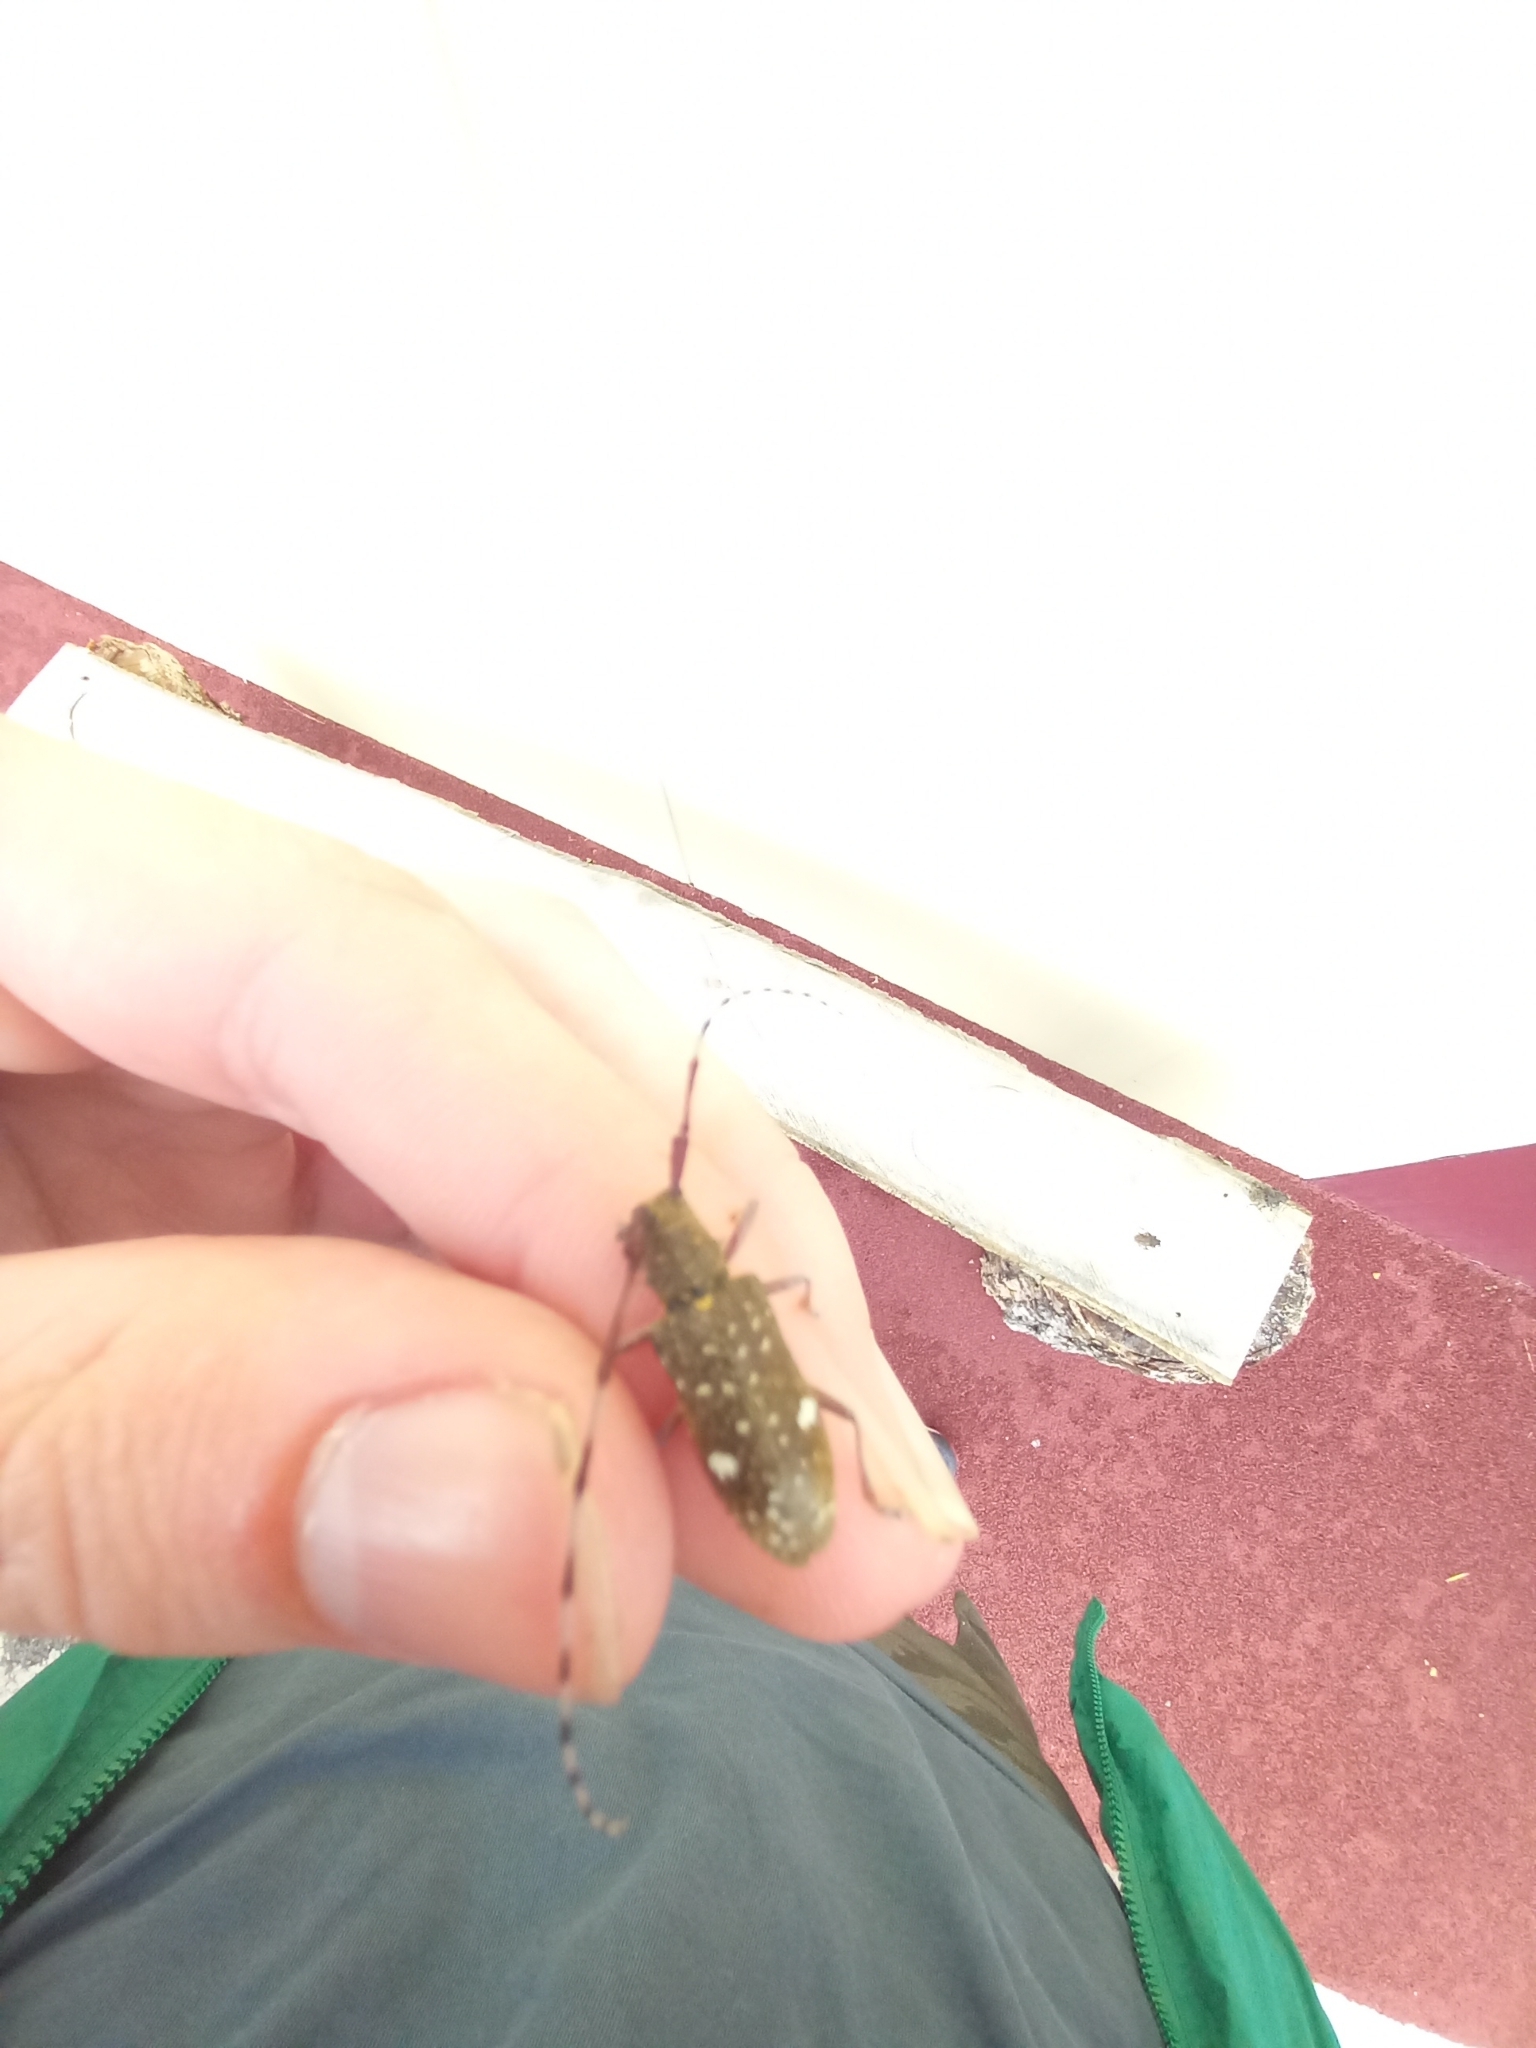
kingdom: Animalia
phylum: Arthropoda
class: Insecta
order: Coleoptera
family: Cerambycidae
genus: Monochamus
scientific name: Monochamus guttulatus
